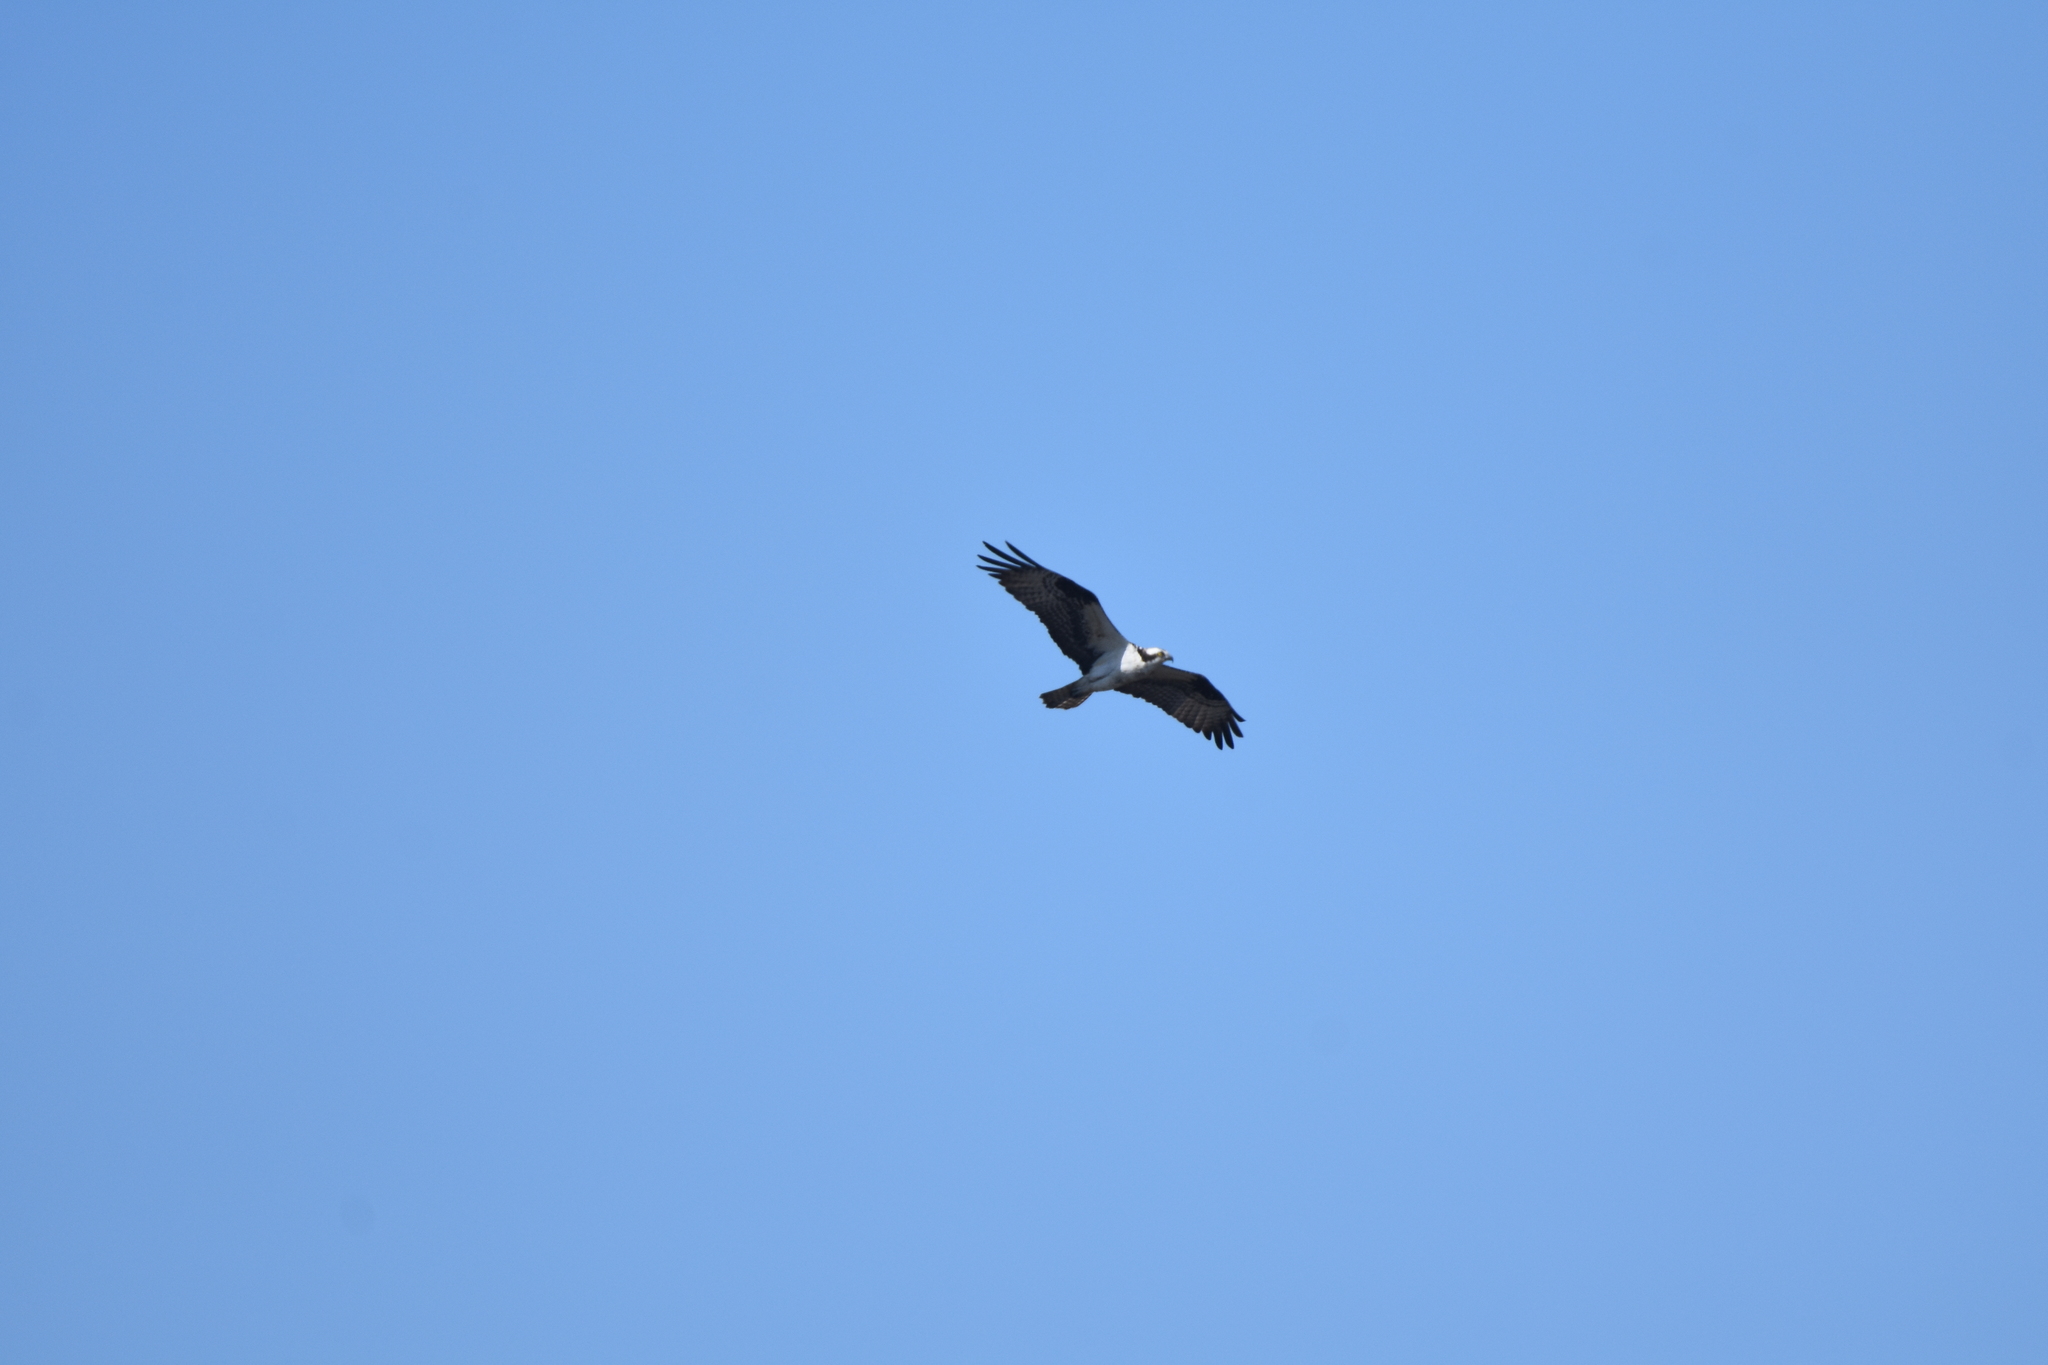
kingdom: Animalia
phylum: Chordata
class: Aves
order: Accipitriformes
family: Pandionidae
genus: Pandion
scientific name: Pandion haliaetus
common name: Osprey
